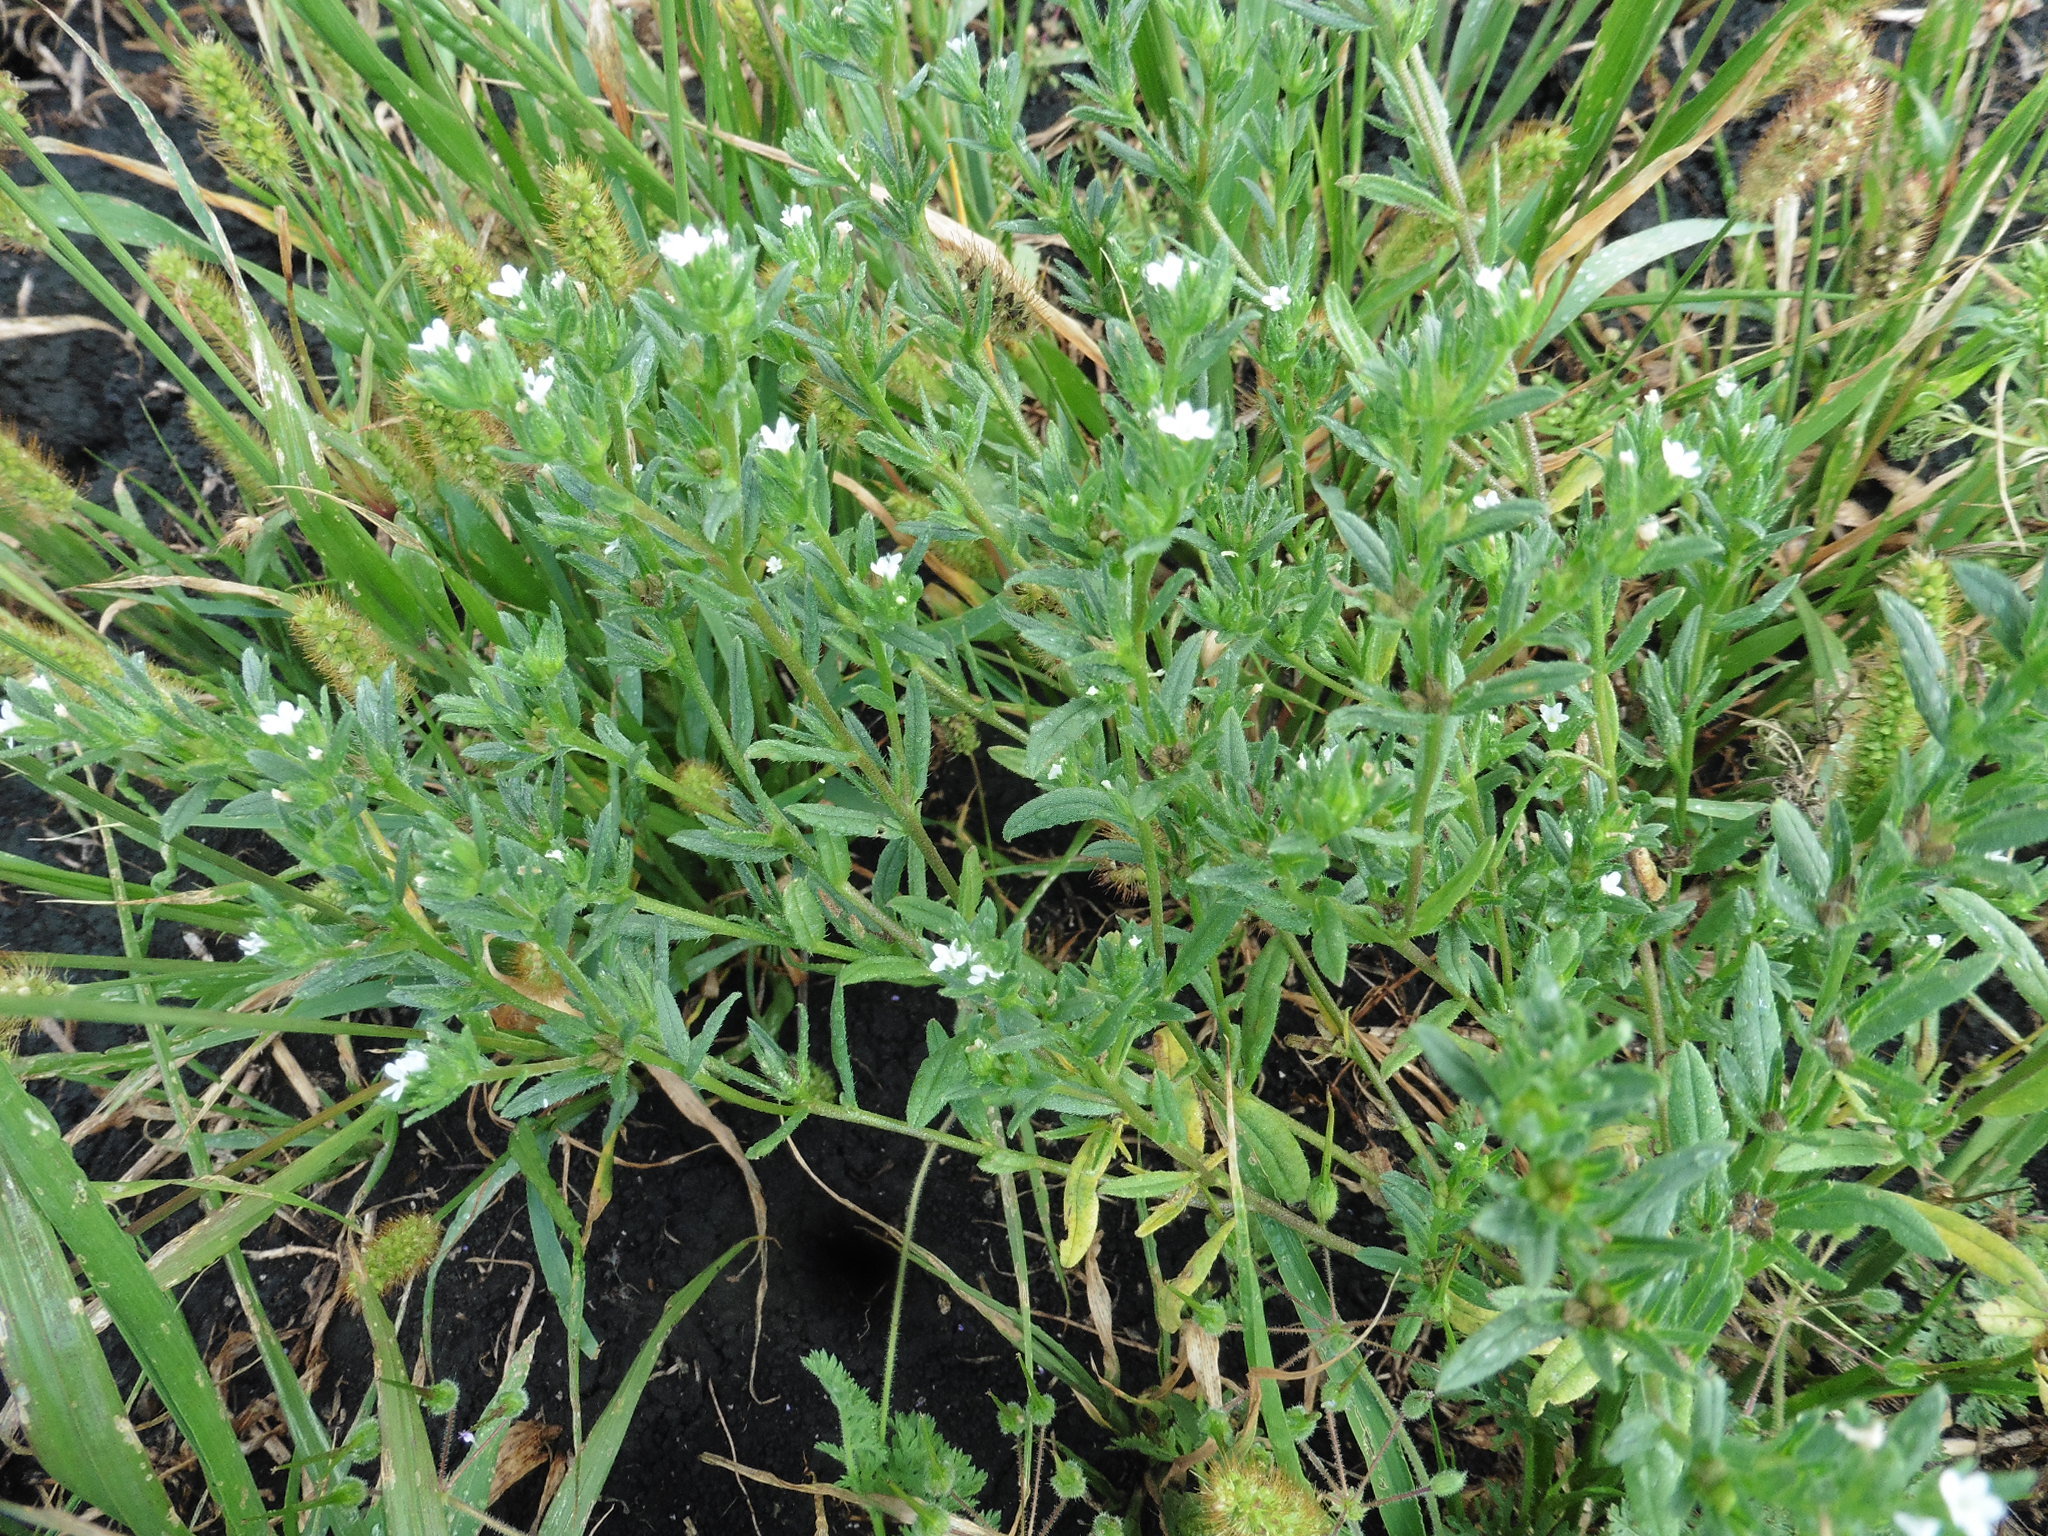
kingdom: Plantae
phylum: Tracheophyta
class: Magnoliopsida
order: Boraginales
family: Boraginaceae
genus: Buglossoides
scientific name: Buglossoides arvensis
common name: Corn gromwell
